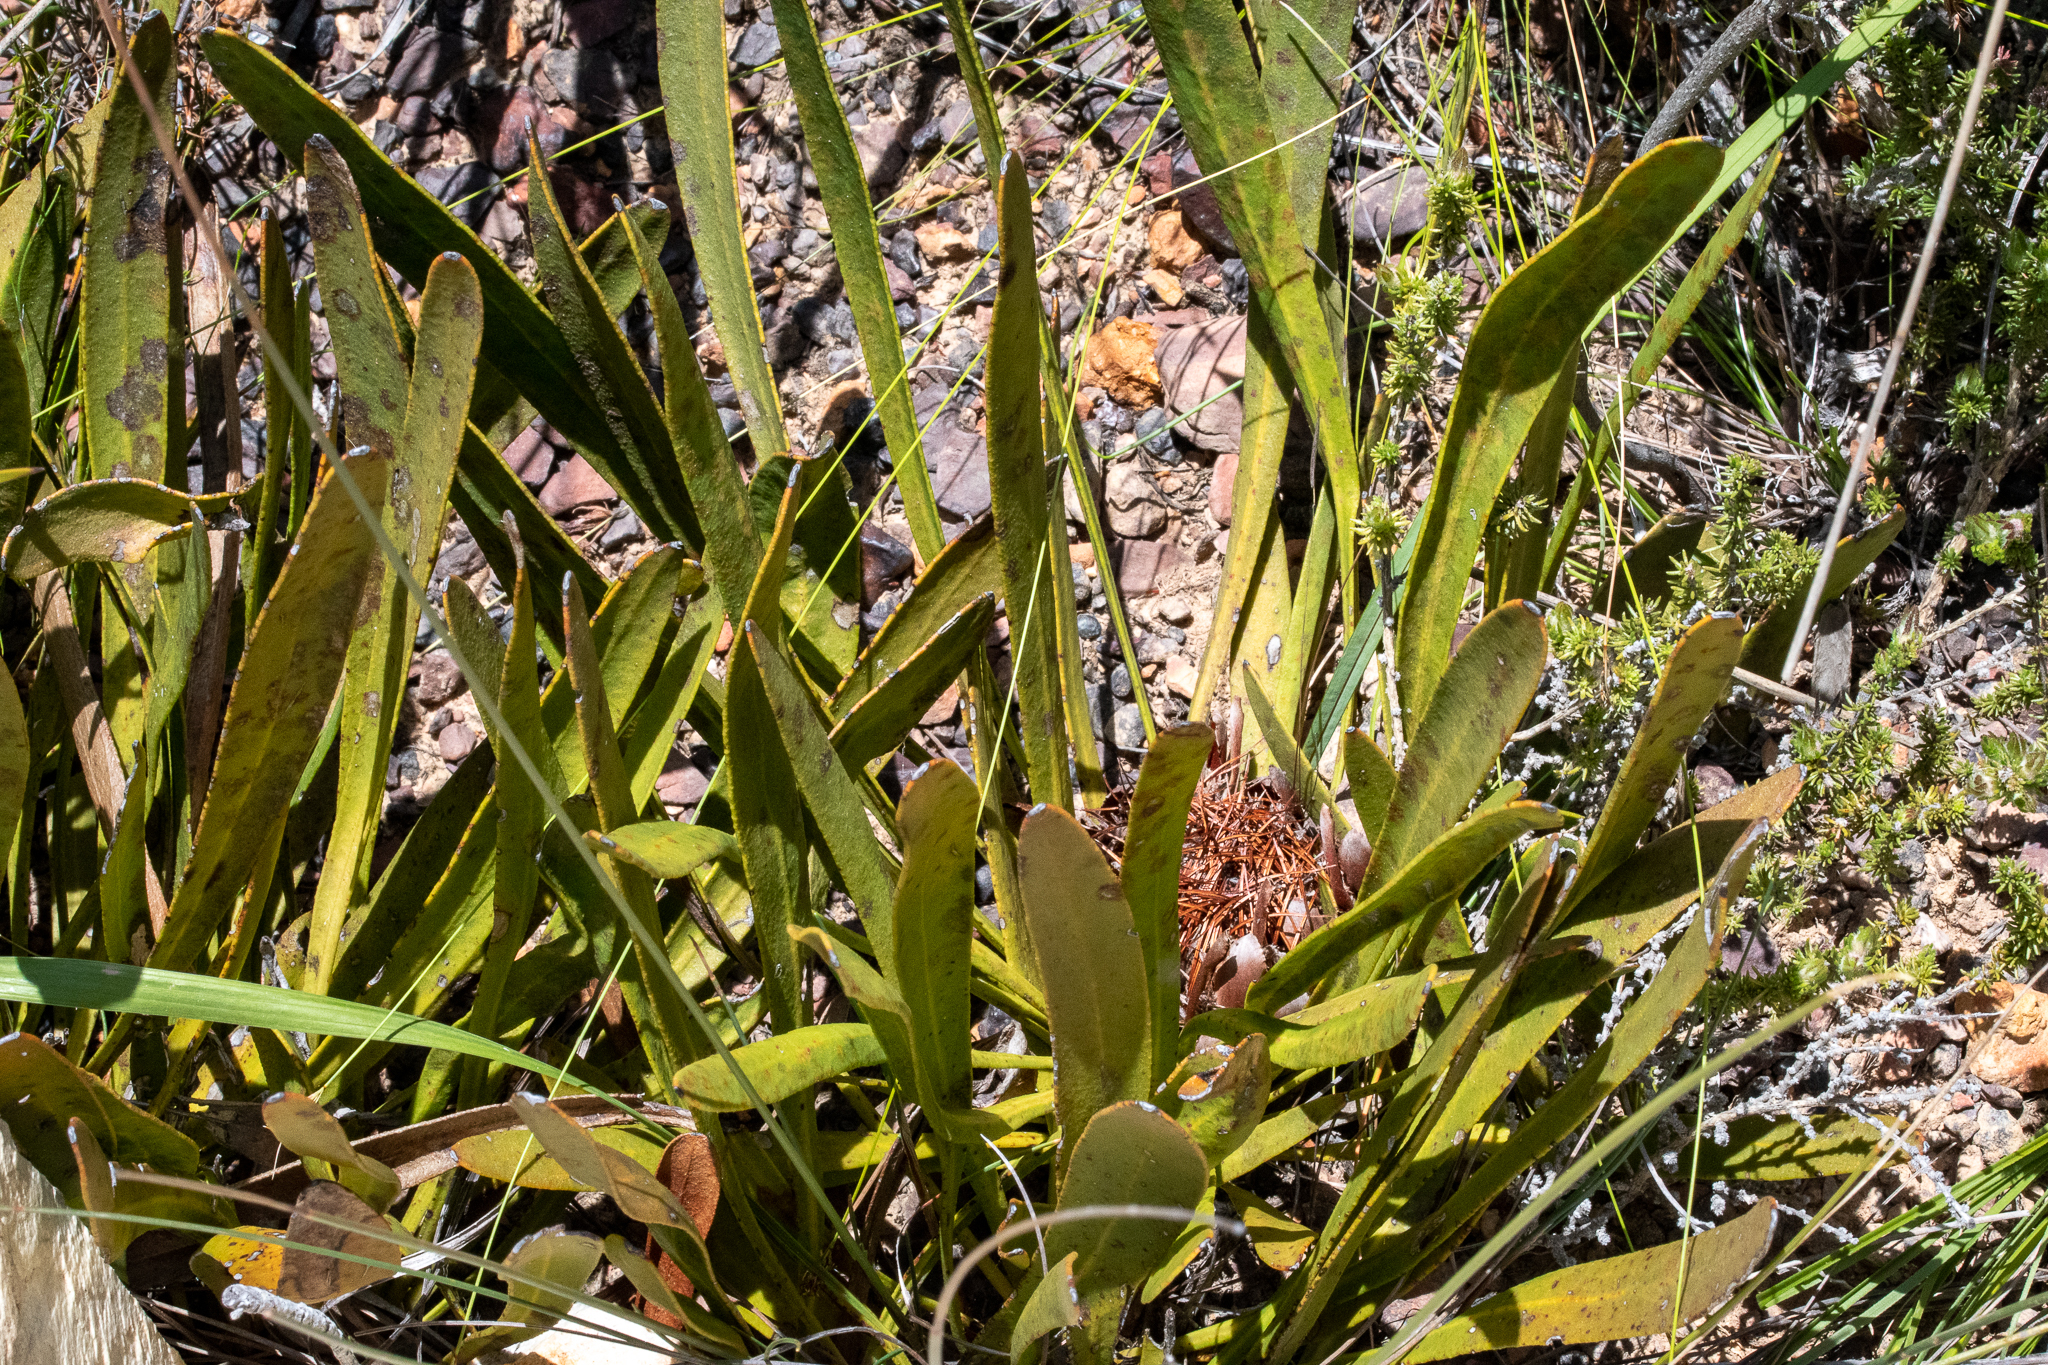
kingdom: Plantae
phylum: Tracheophyta
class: Magnoliopsida
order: Proteales
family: Proteaceae
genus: Protea
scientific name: Protea scabra
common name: Sandpaper-leaf sugarbush
